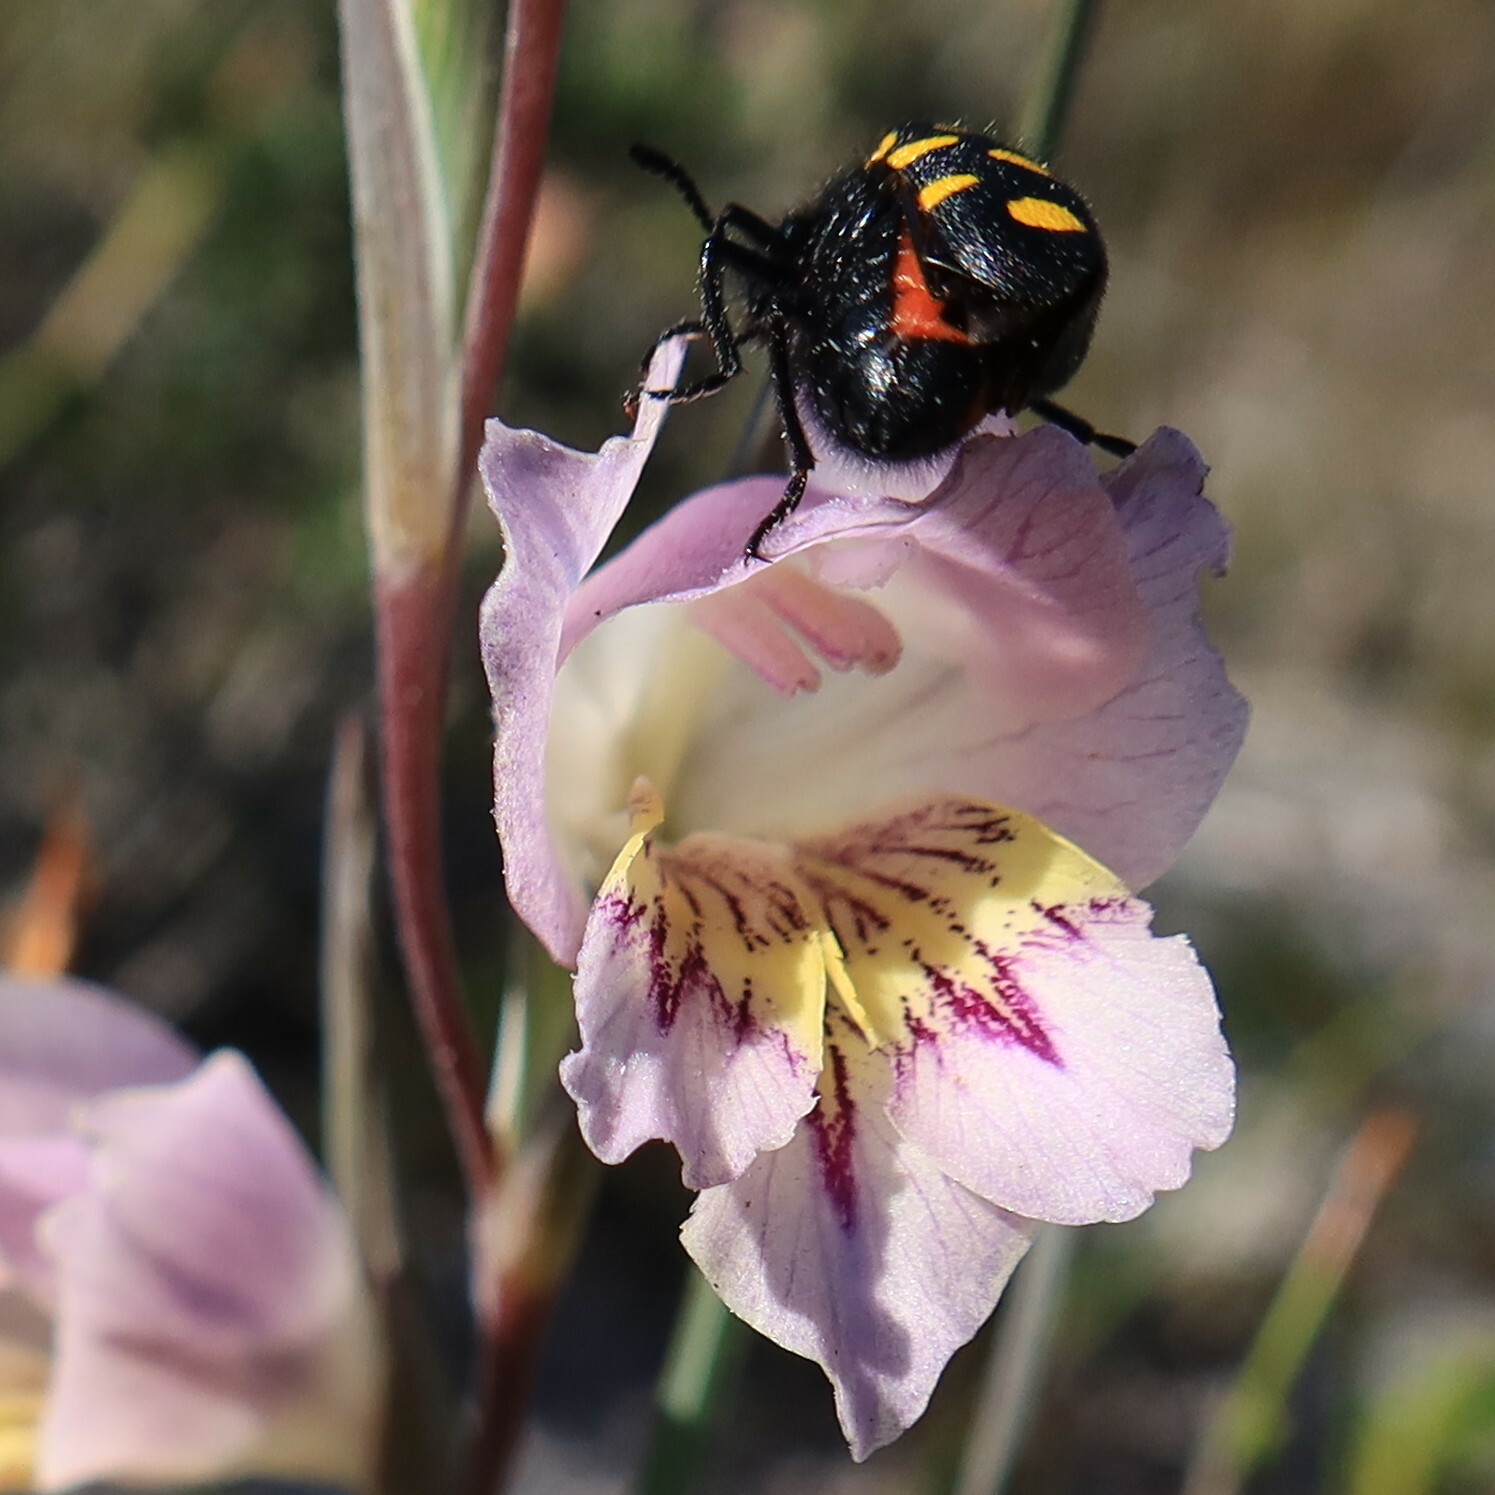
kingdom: Animalia
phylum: Arthropoda
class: Insecta
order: Coleoptera
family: Meloidae
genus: Ceroctis
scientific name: Ceroctis capensis
